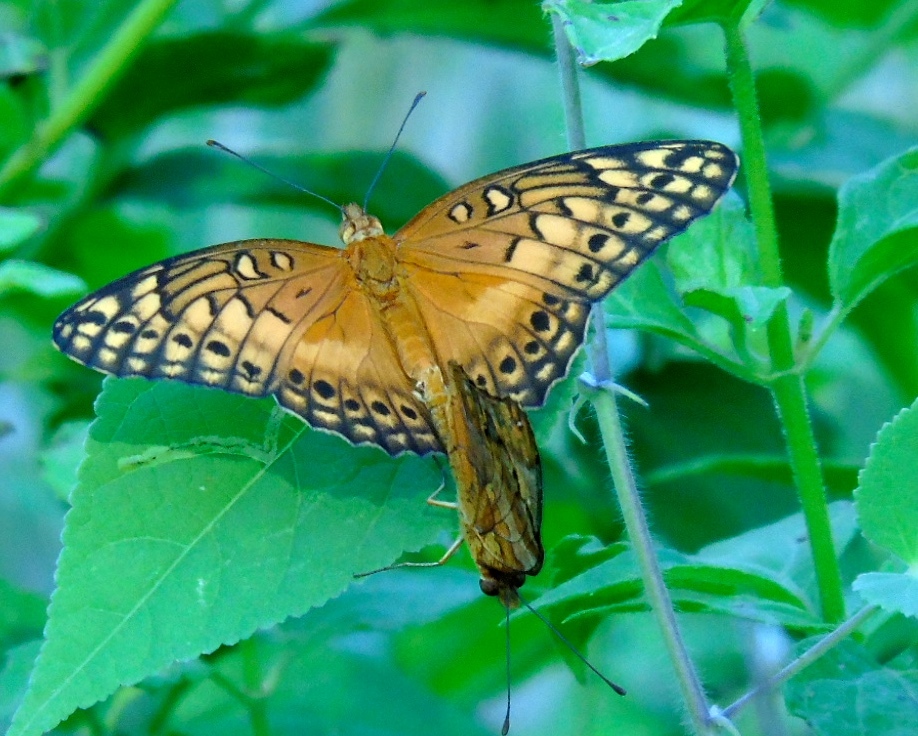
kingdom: Animalia
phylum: Arthropoda
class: Insecta
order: Lepidoptera
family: Nymphalidae
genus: Euptoieta
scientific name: Euptoieta hegesia
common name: Mexican fritillary
